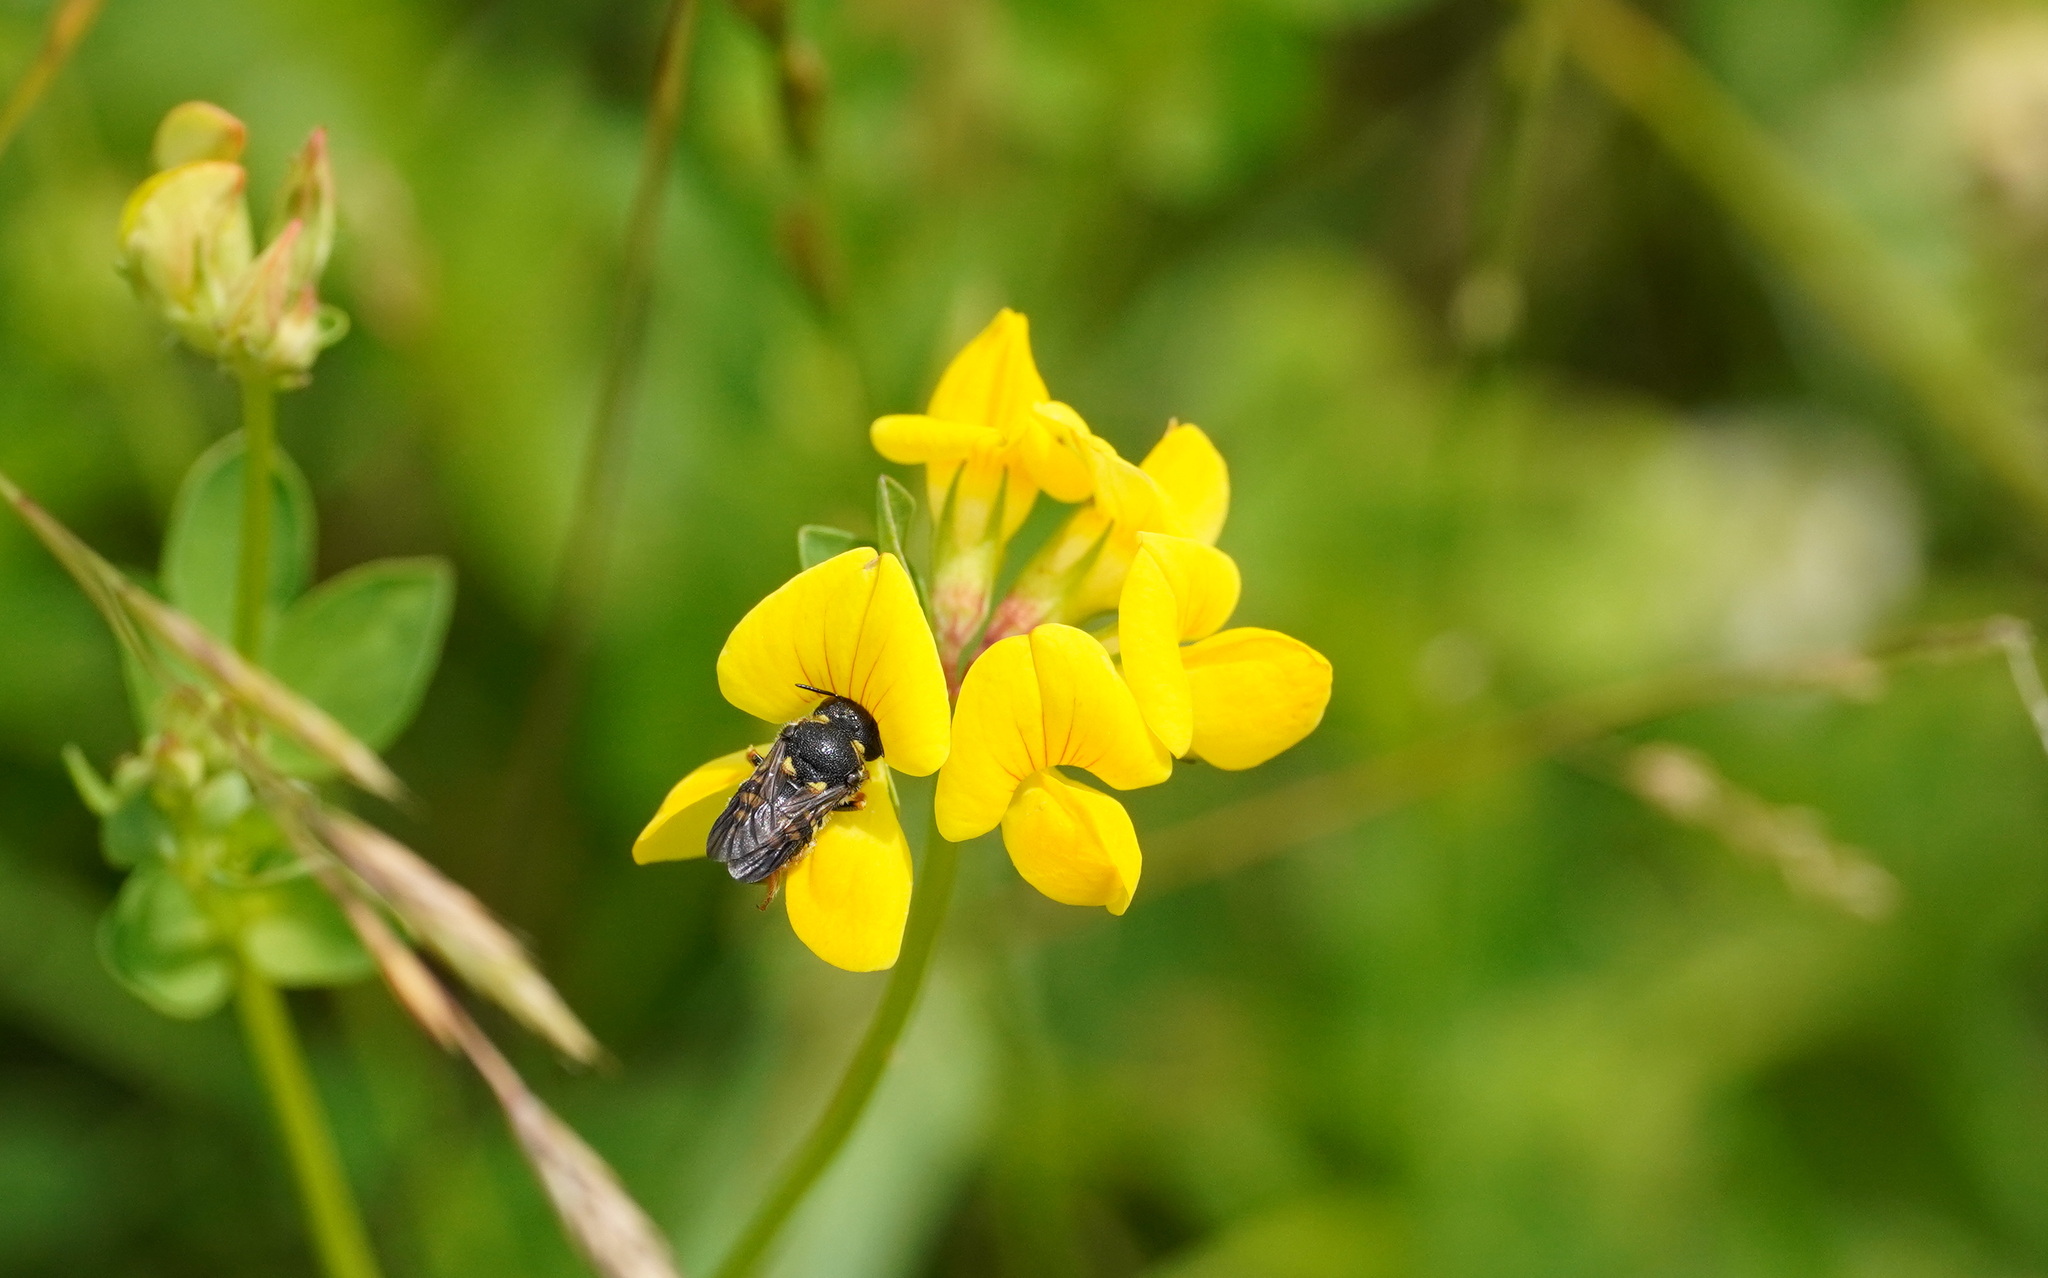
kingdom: Animalia
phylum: Arthropoda
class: Insecta
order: Hymenoptera
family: Megachilidae
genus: Anthidiellum
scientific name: Anthidiellum strigatum
